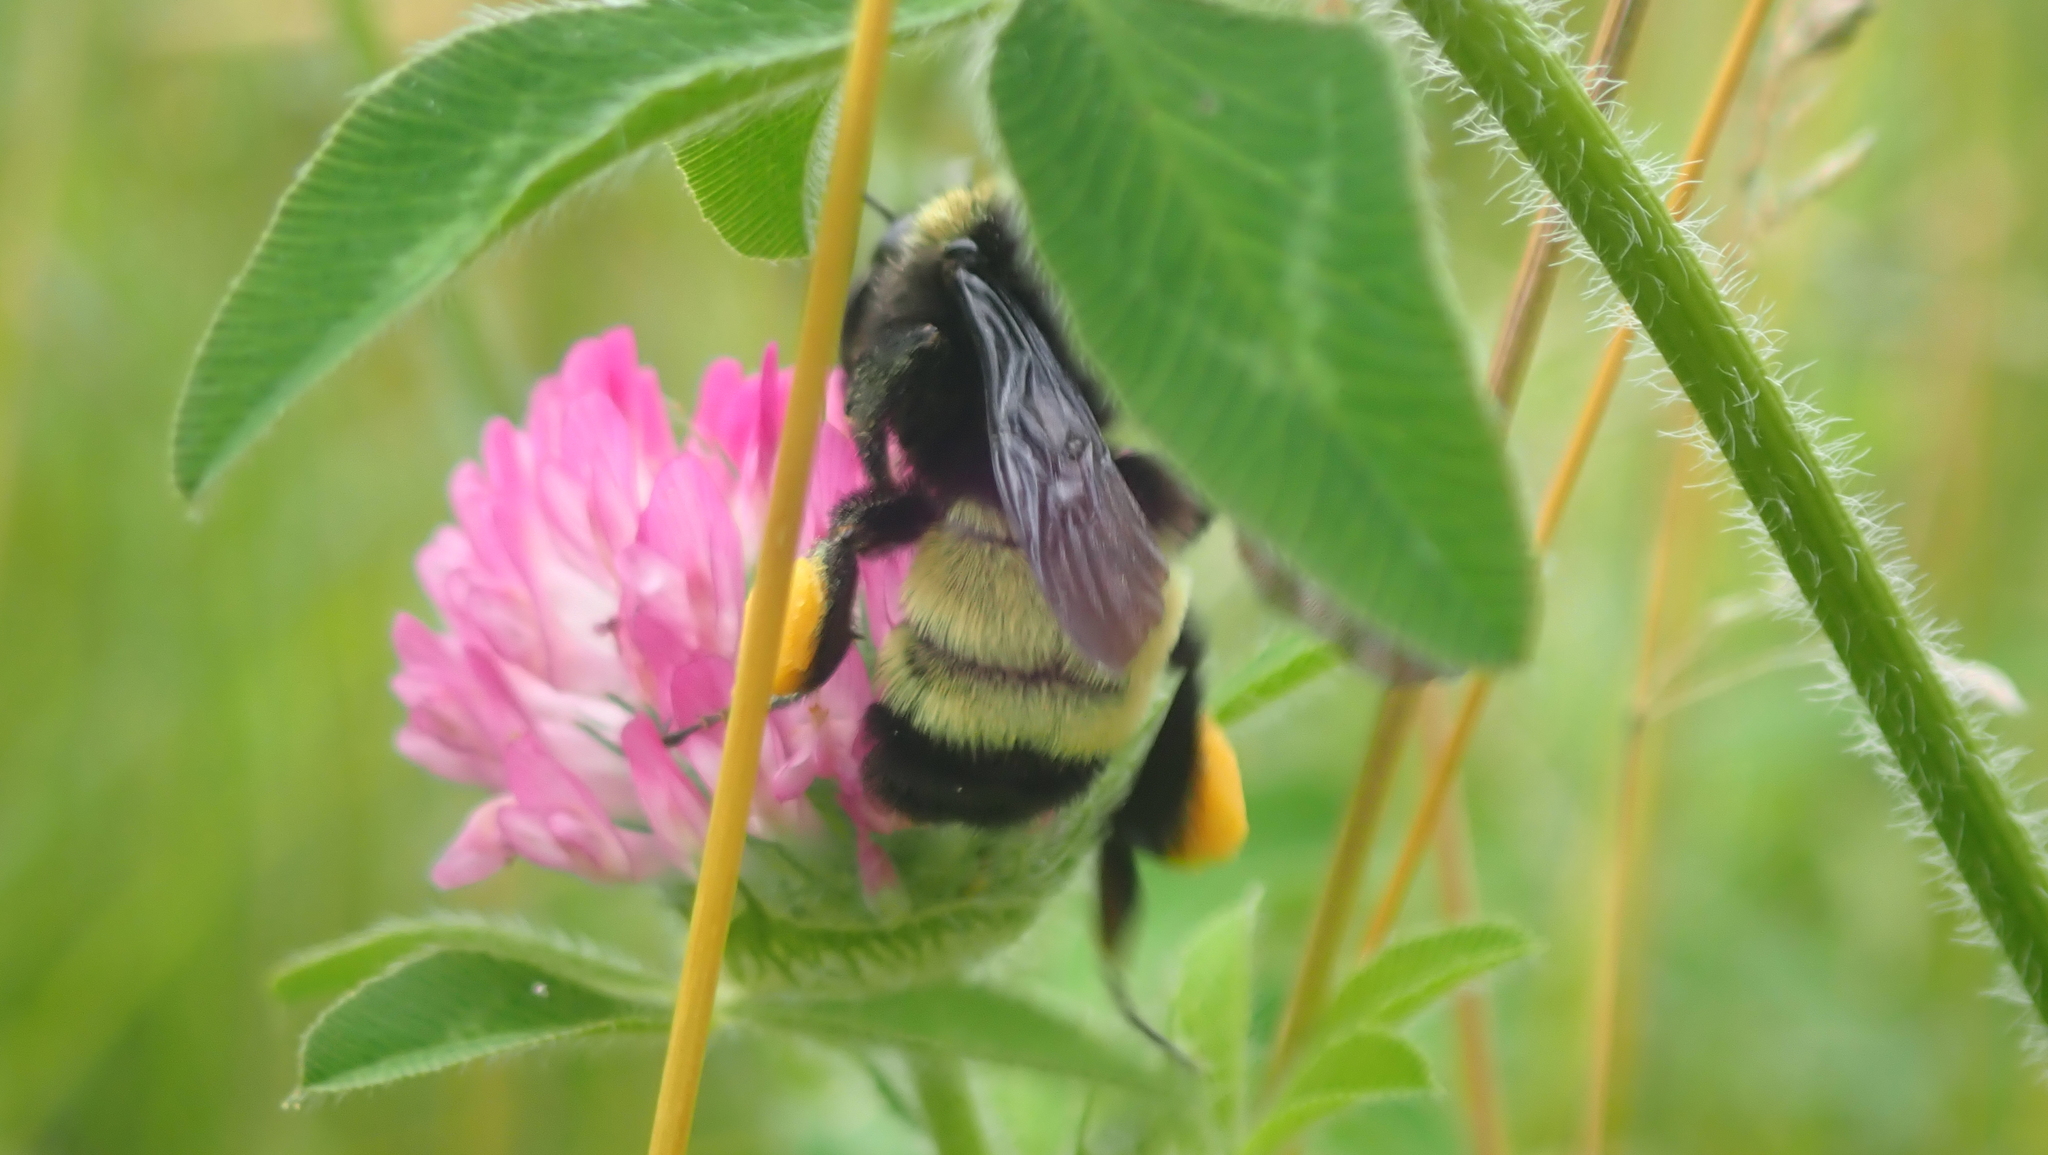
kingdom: Animalia
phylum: Arthropoda
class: Insecta
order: Hymenoptera
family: Apidae
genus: Bombus
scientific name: Bombus pensylvanicus
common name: Bumble bee
